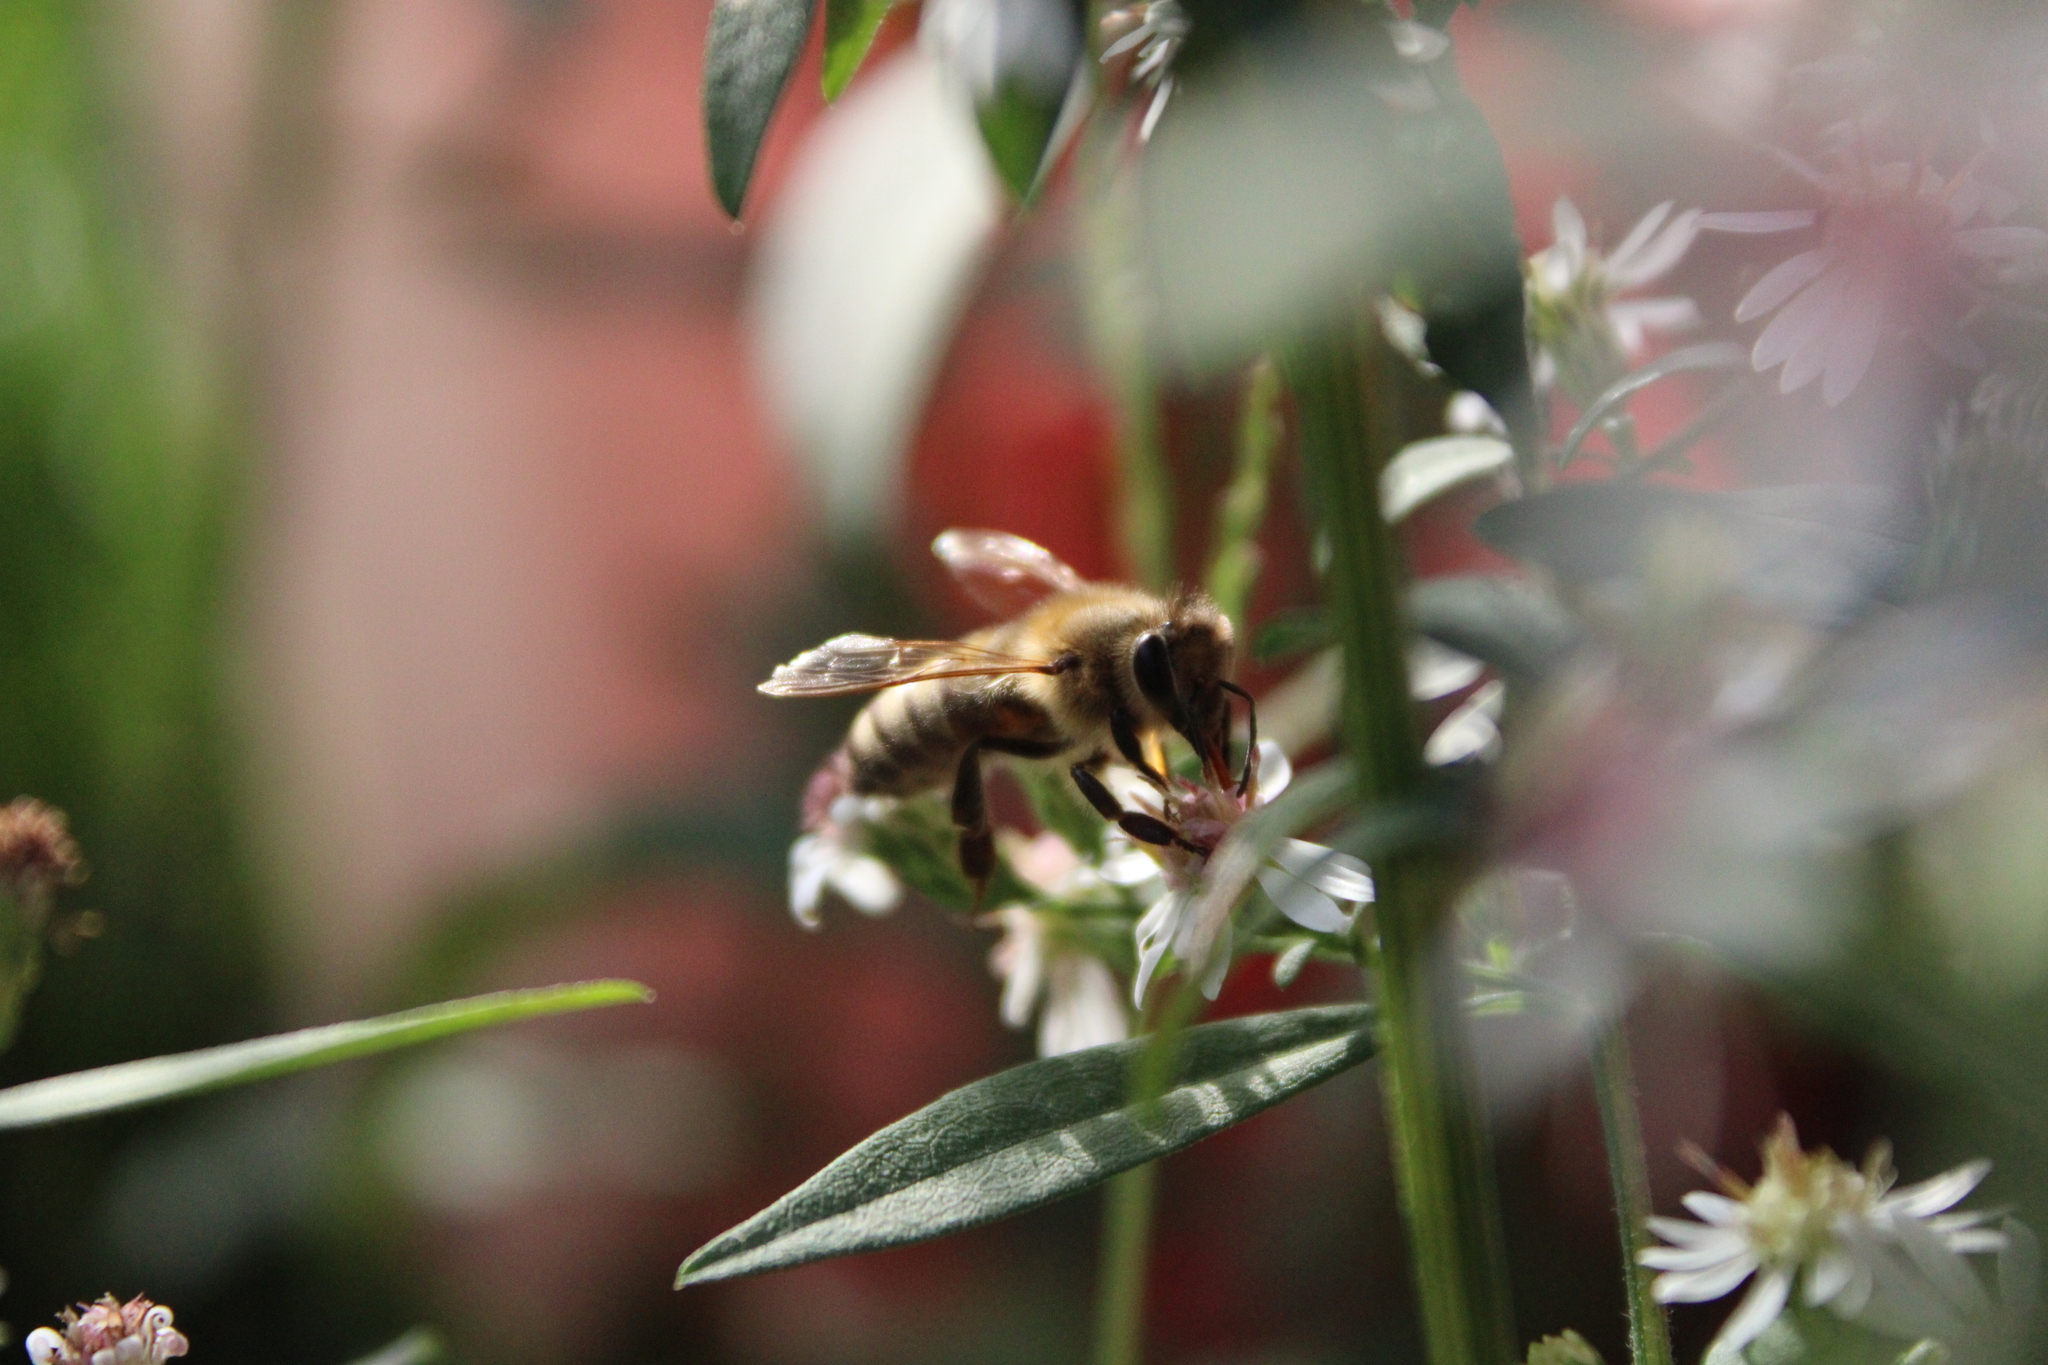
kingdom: Animalia
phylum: Arthropoda
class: Insecta
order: Hymenoptera
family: Apidae
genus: Apis
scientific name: Apis mellifera
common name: Honey bee
